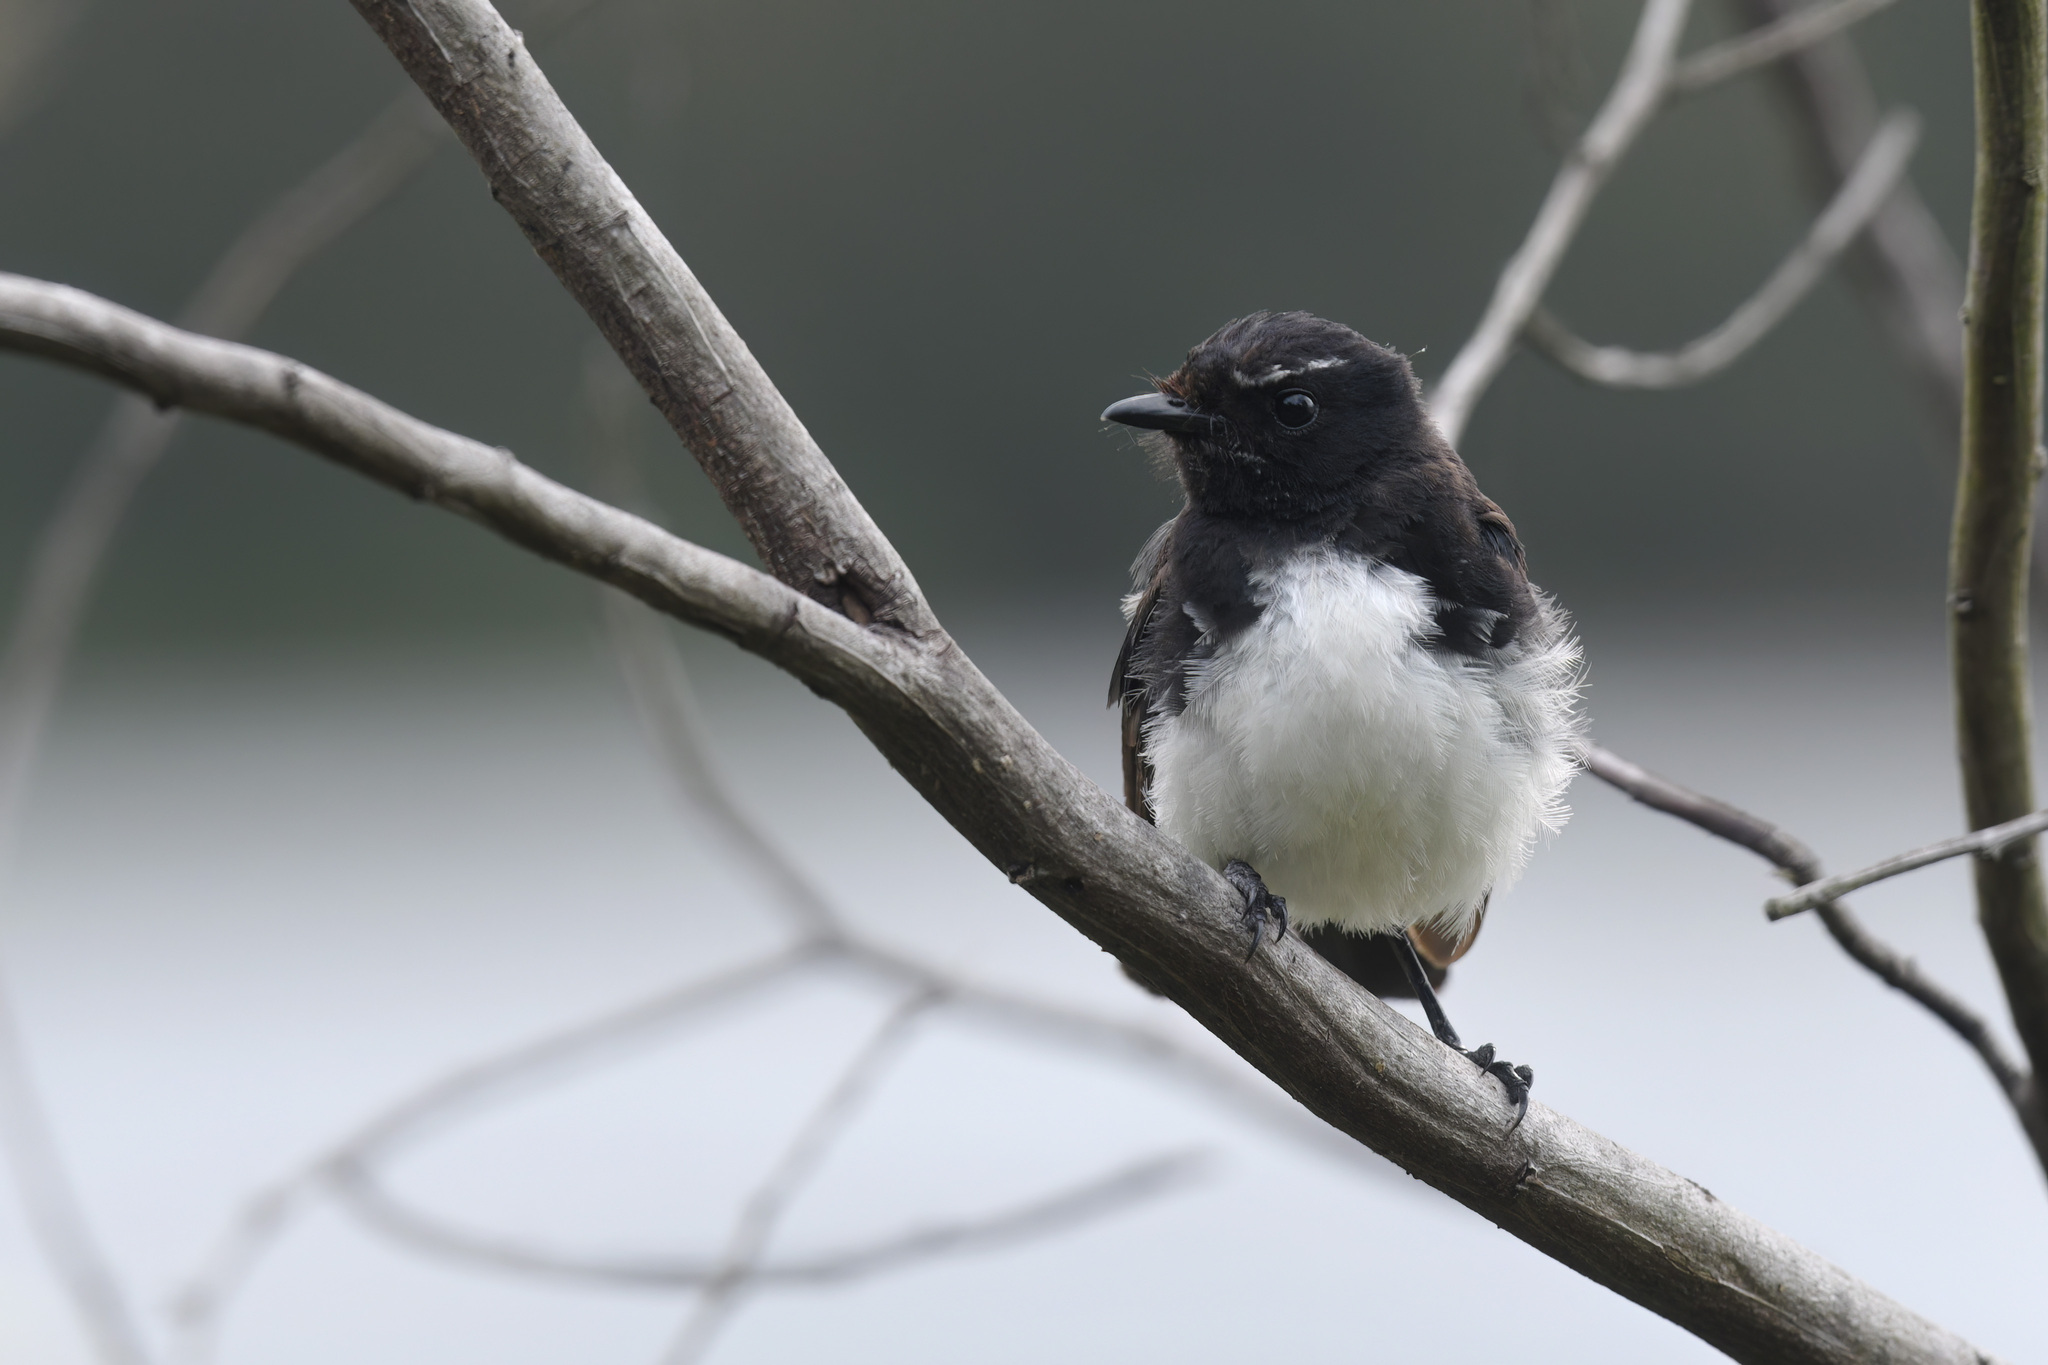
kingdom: Animalia
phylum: Chordata
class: Aves
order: Passeriformes
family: Rhipiduridae
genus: Rhipidura
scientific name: Rhipidura leucophrys
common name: Willie wagtail
